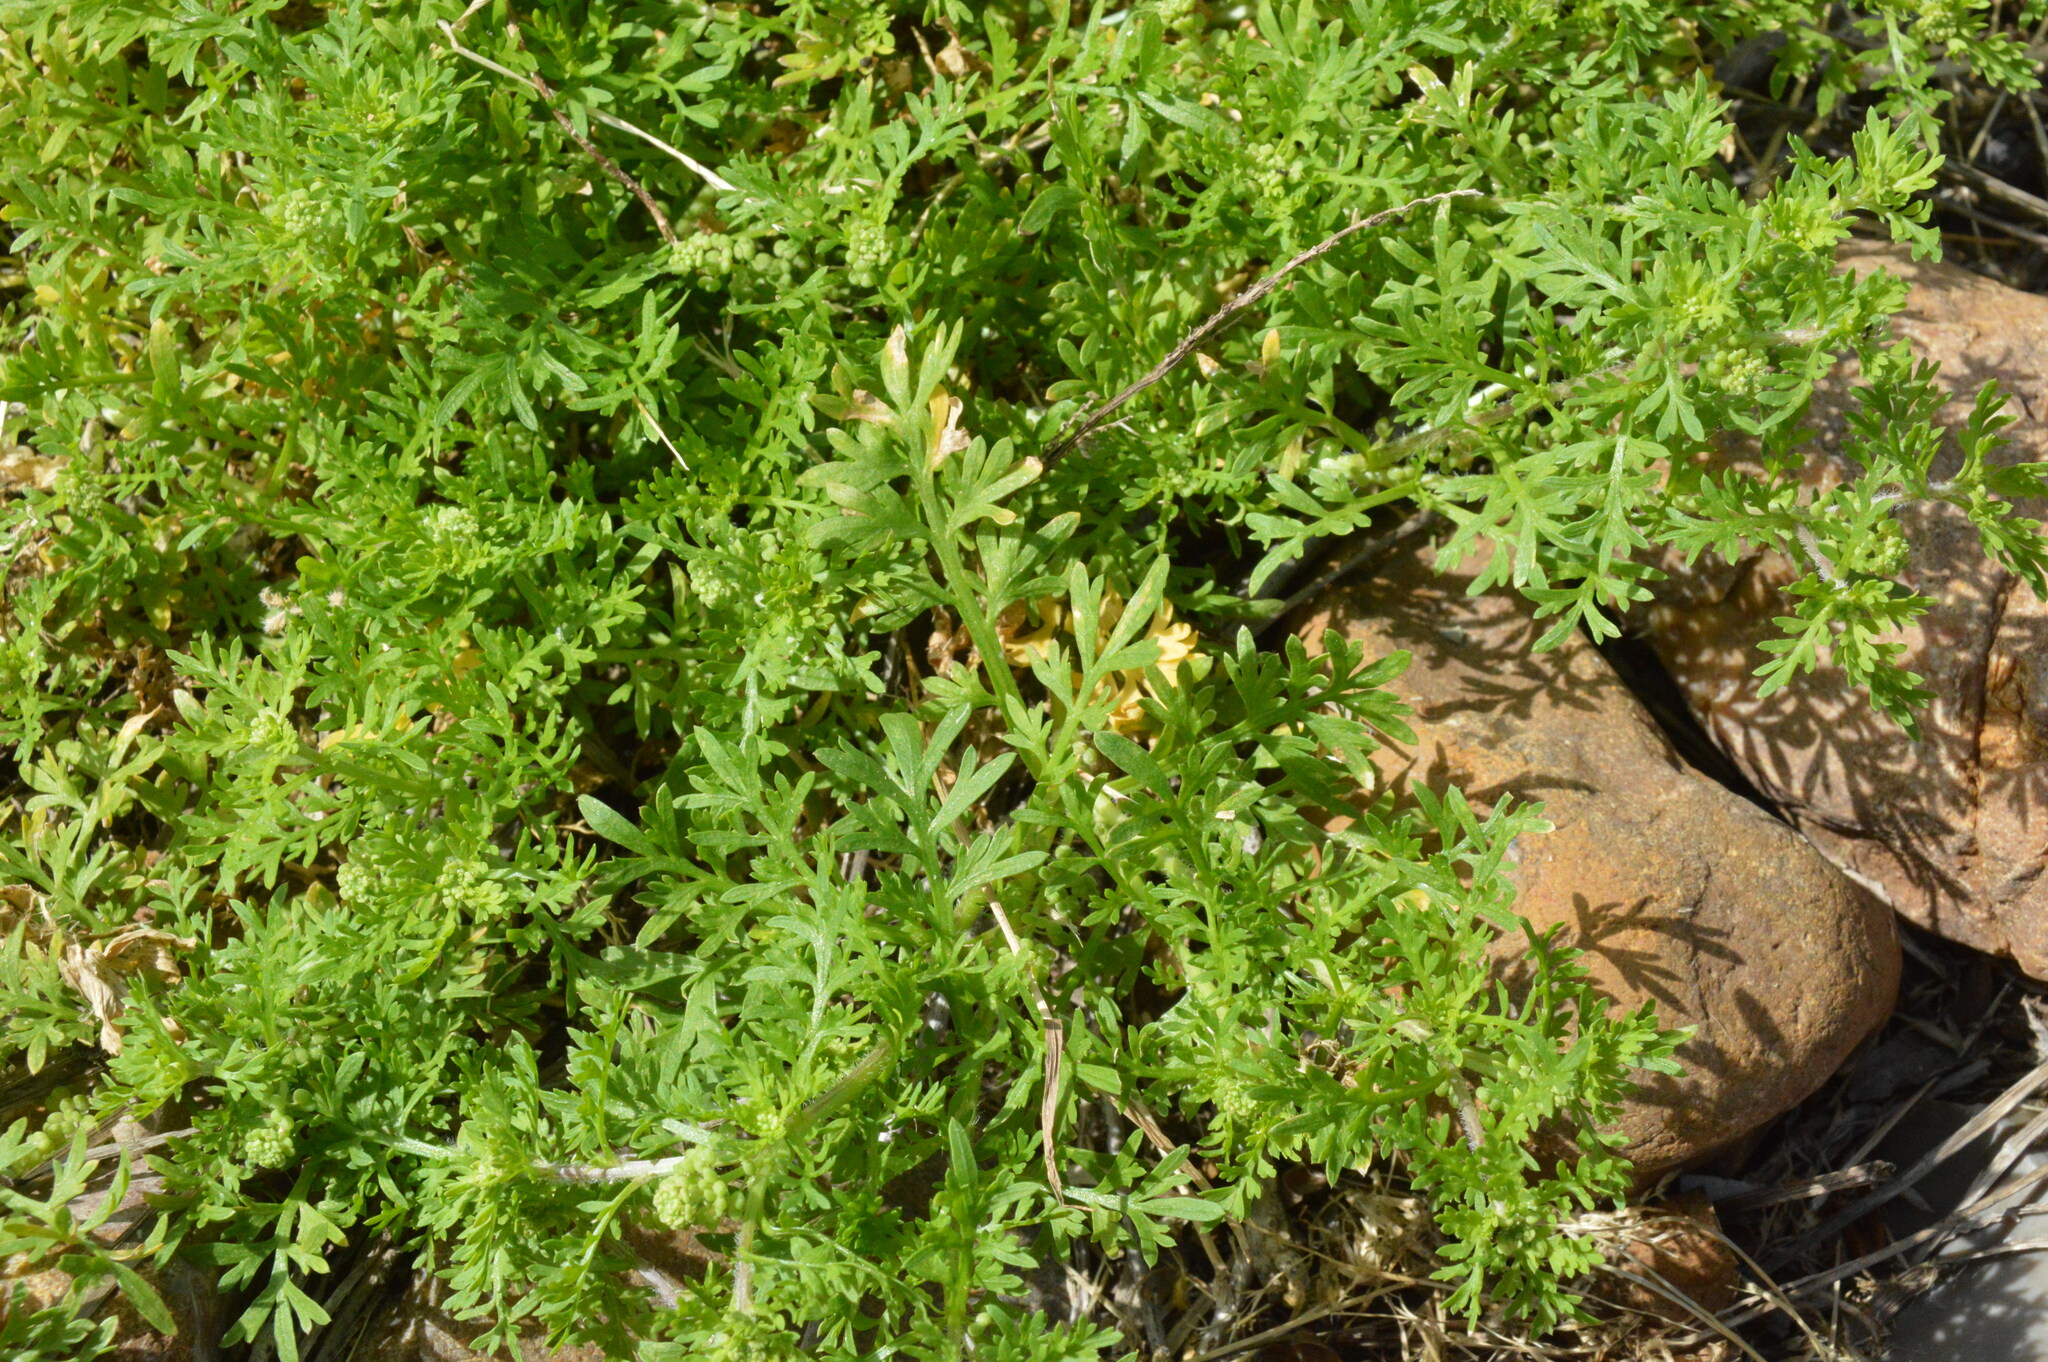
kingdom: Plantae
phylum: Tracheophyta
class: Magnoliopsida
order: Brassicales
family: Brassicaceae
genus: Lepidium
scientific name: Lepidium didymum
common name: Lesser swinecress
